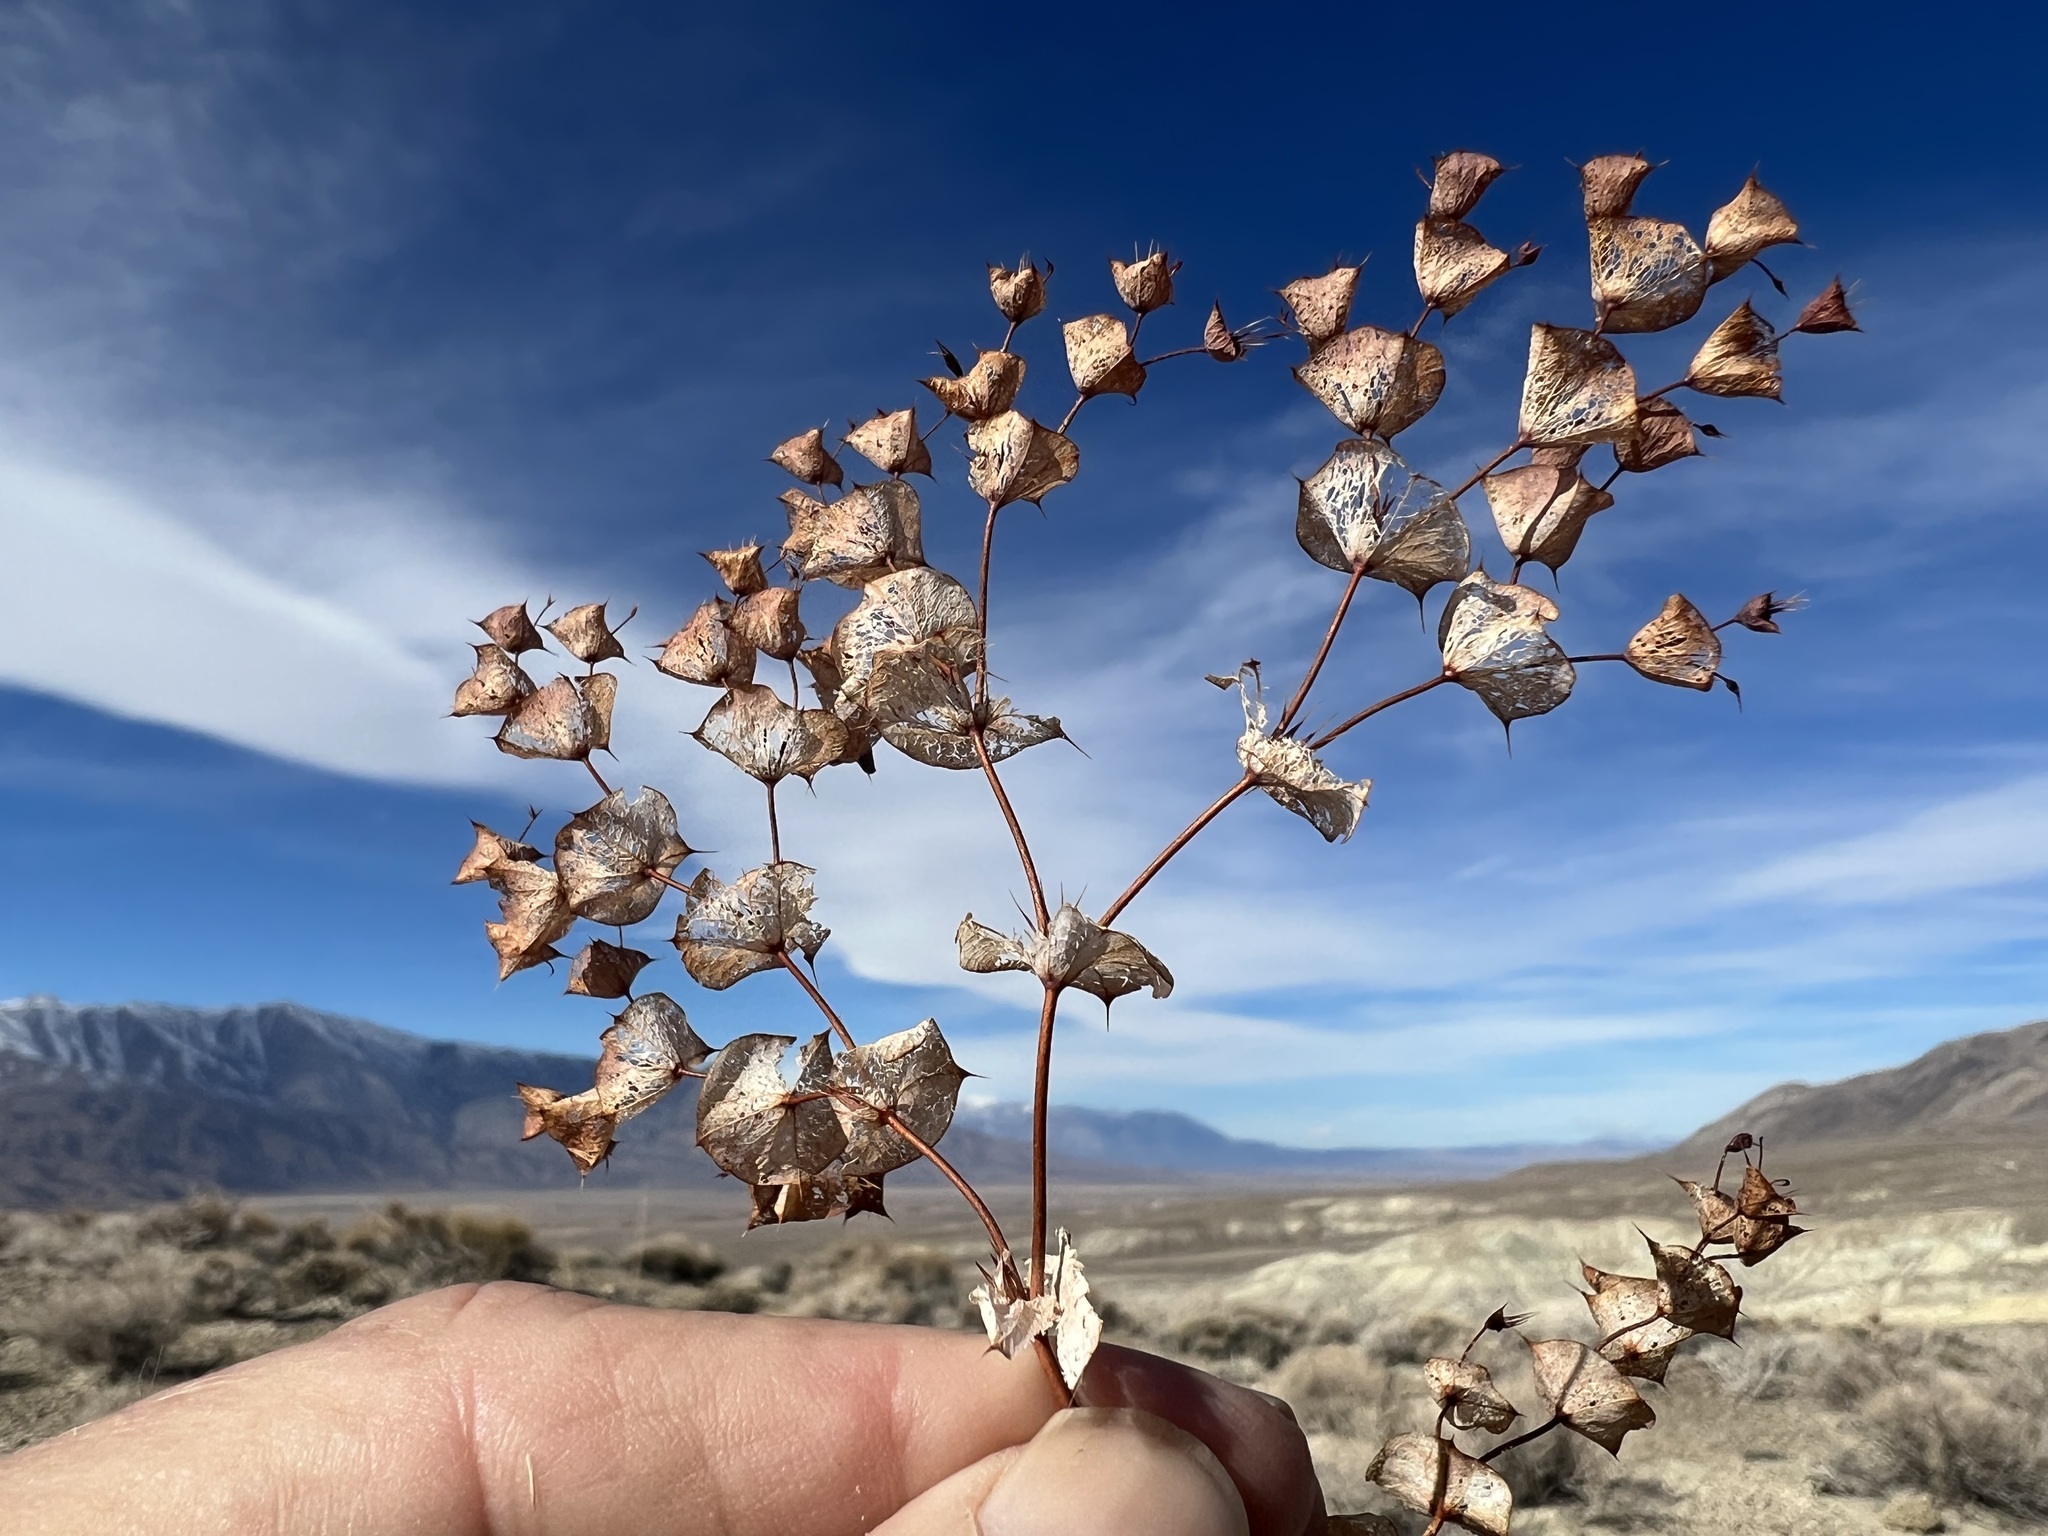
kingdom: Plantae
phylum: Tracheophyta
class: Magnoliopsida
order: Caryophyllales
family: Polygonaceae
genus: Oxytheca
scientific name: Oxytheca perfoliata
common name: Round-leaf puncturebract
